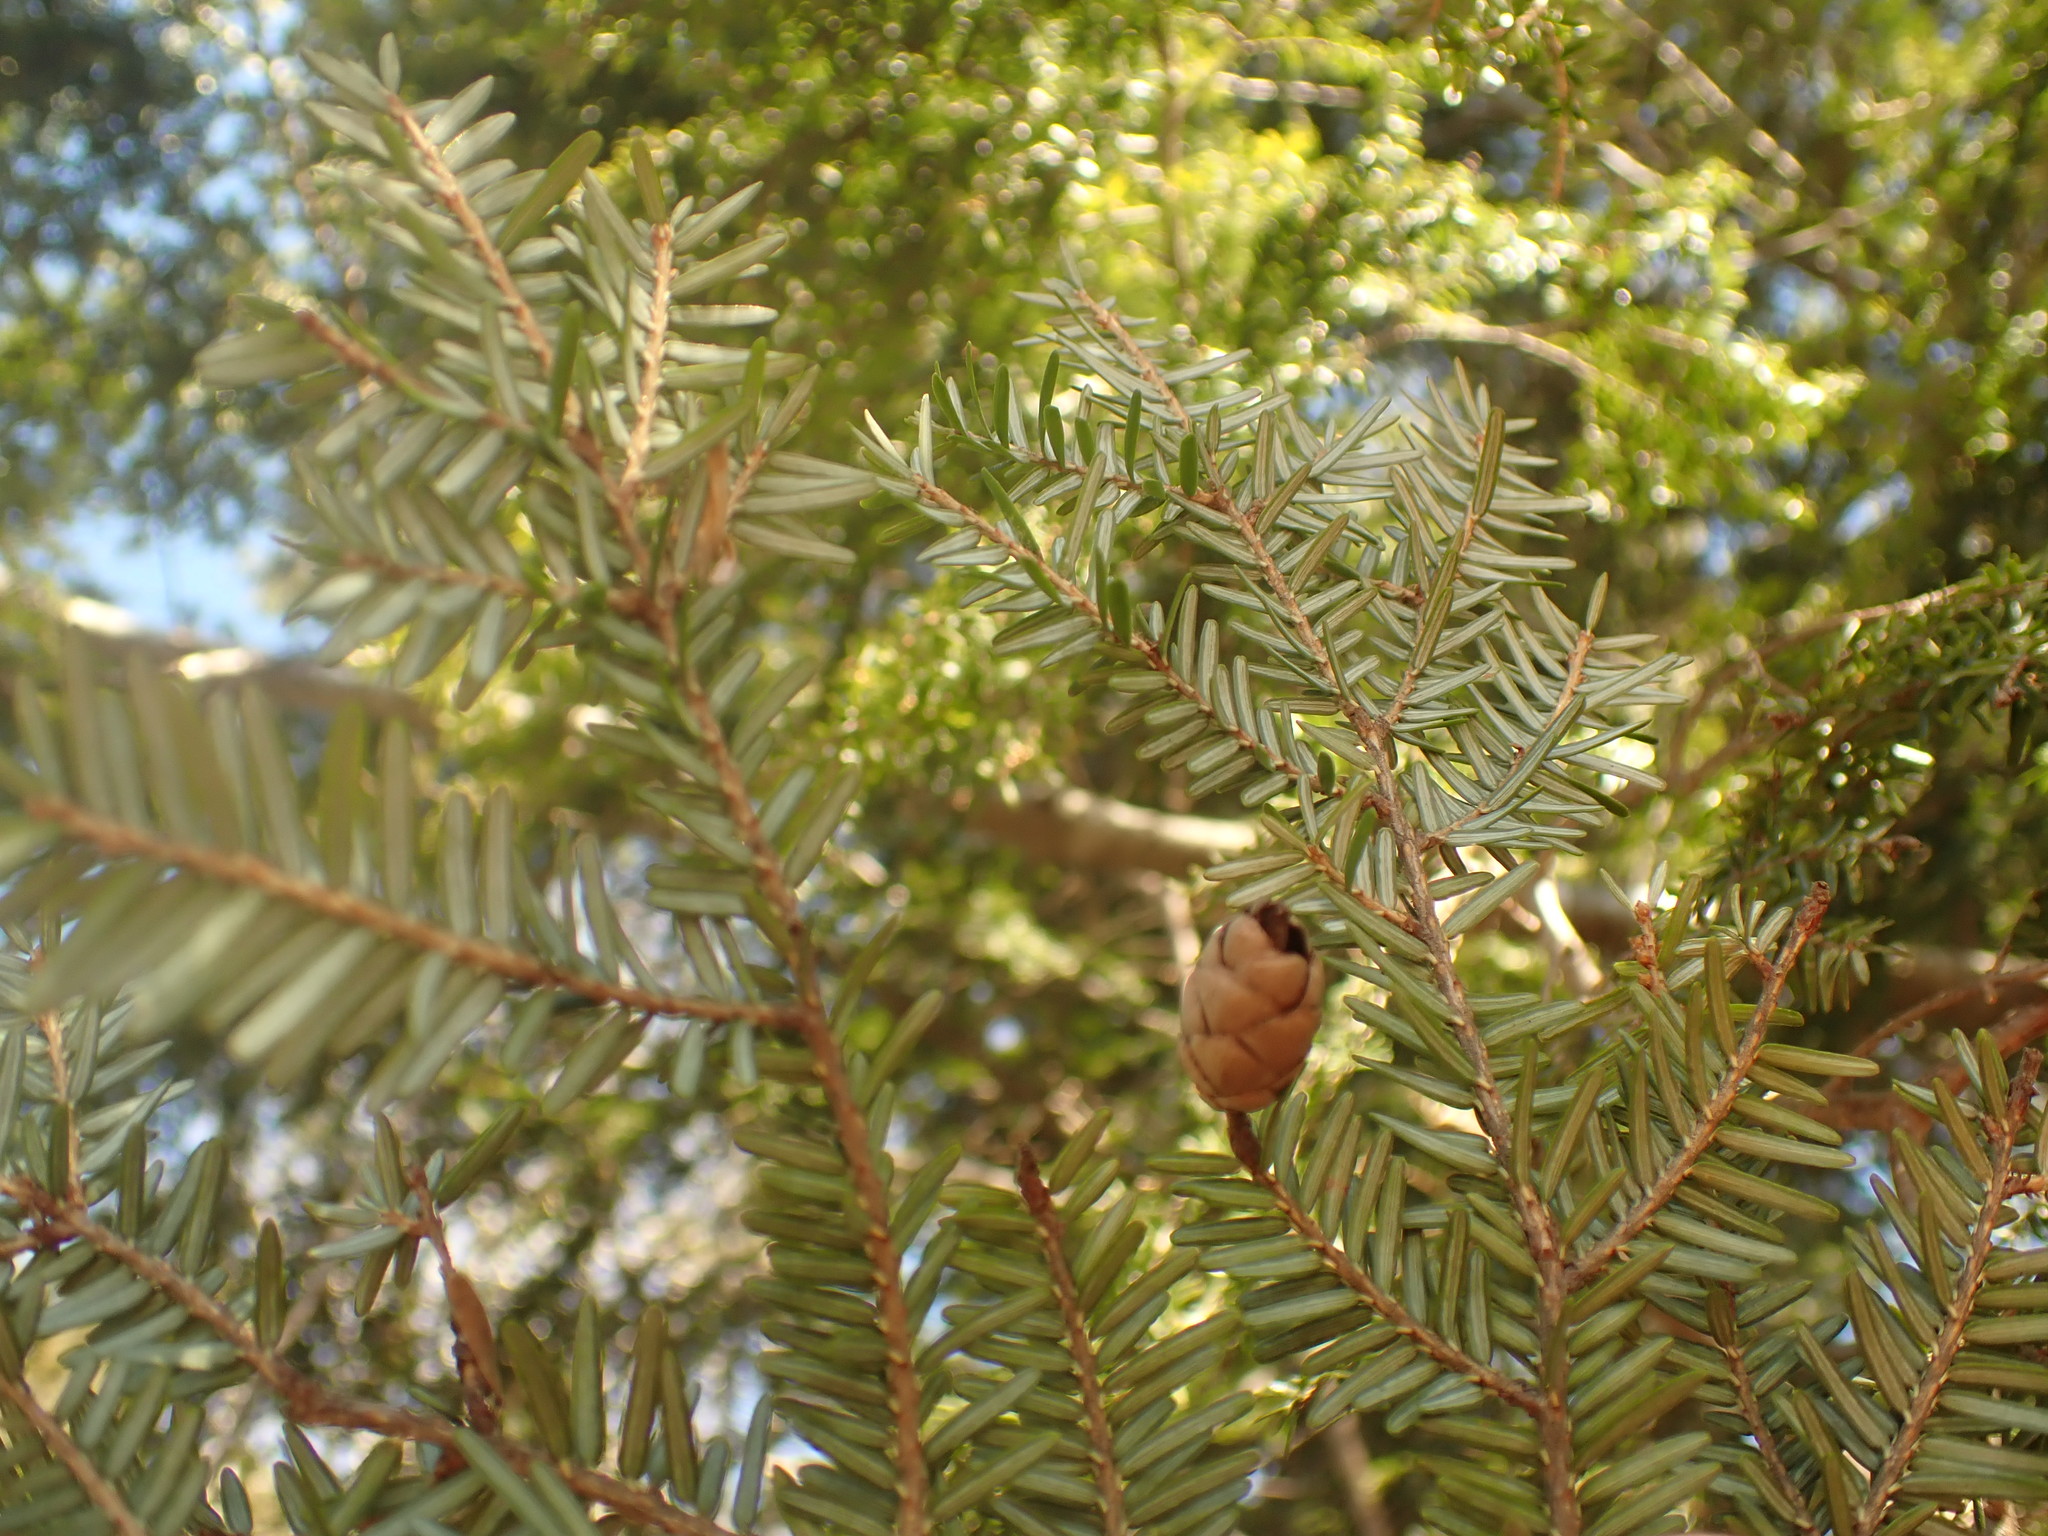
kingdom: Plantae
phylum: Tracheophyta
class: Pinopsida
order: Pinales
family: Pinaceae
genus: Tsuga
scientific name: Tsuga canadensis
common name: Eastern hemlock
